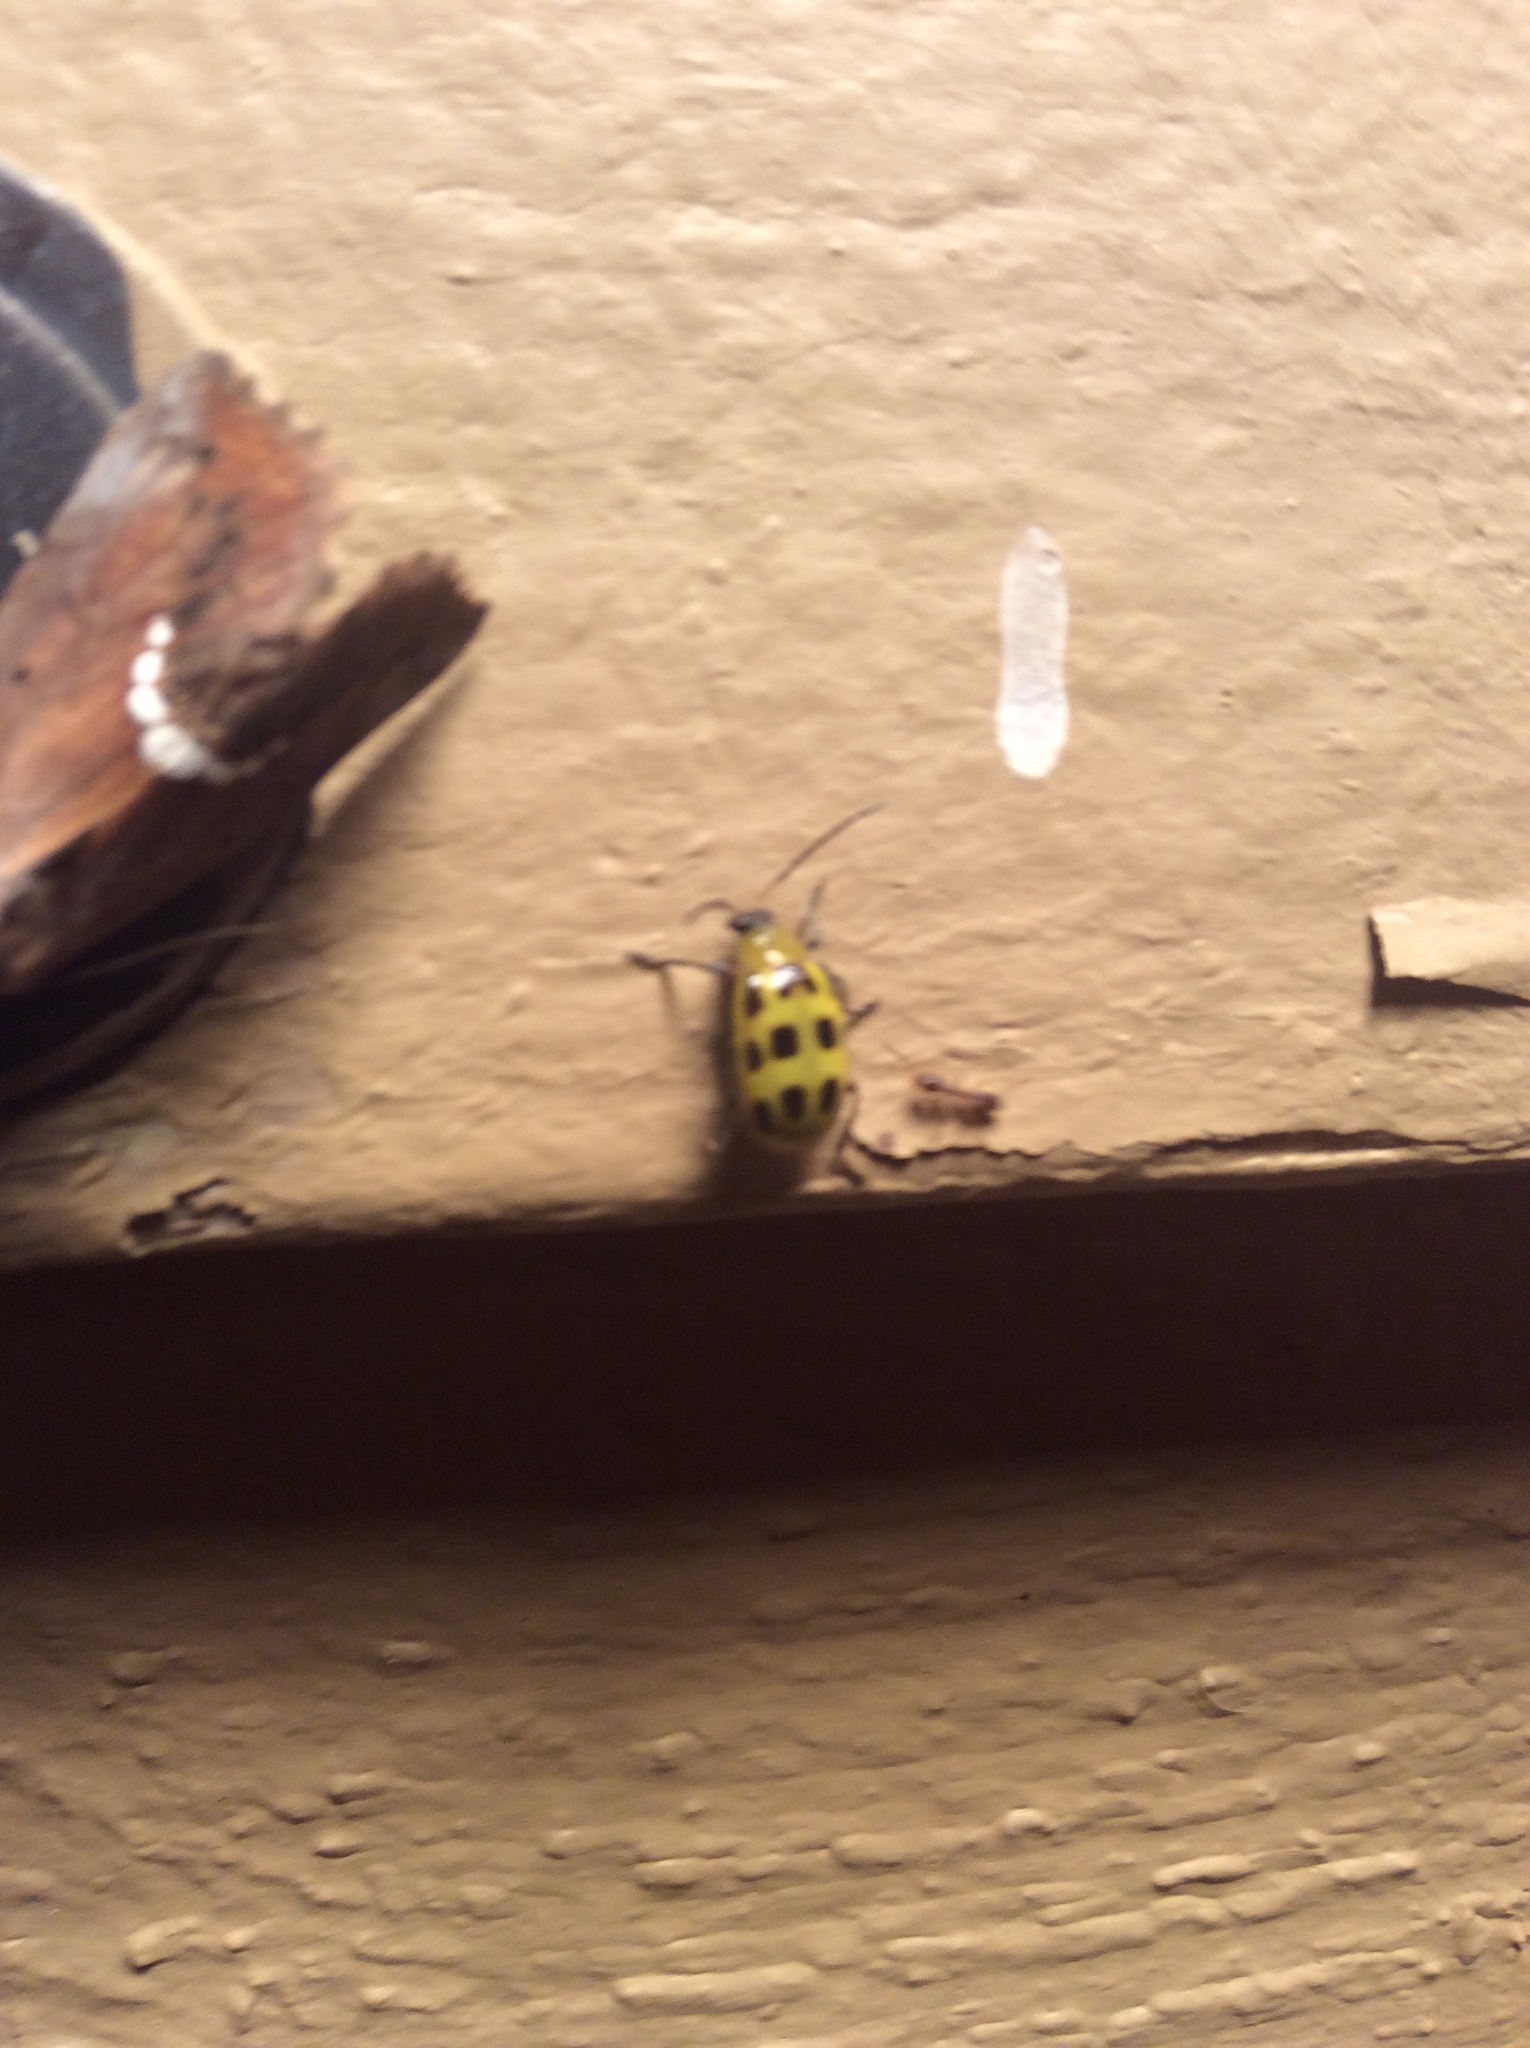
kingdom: Animalia
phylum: Arthropoda
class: Insecta
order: Coleoptera
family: Chrysomelidae
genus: Diabrotica
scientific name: Diabrotica undecimpunctata
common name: Spotted cucumber beetle
